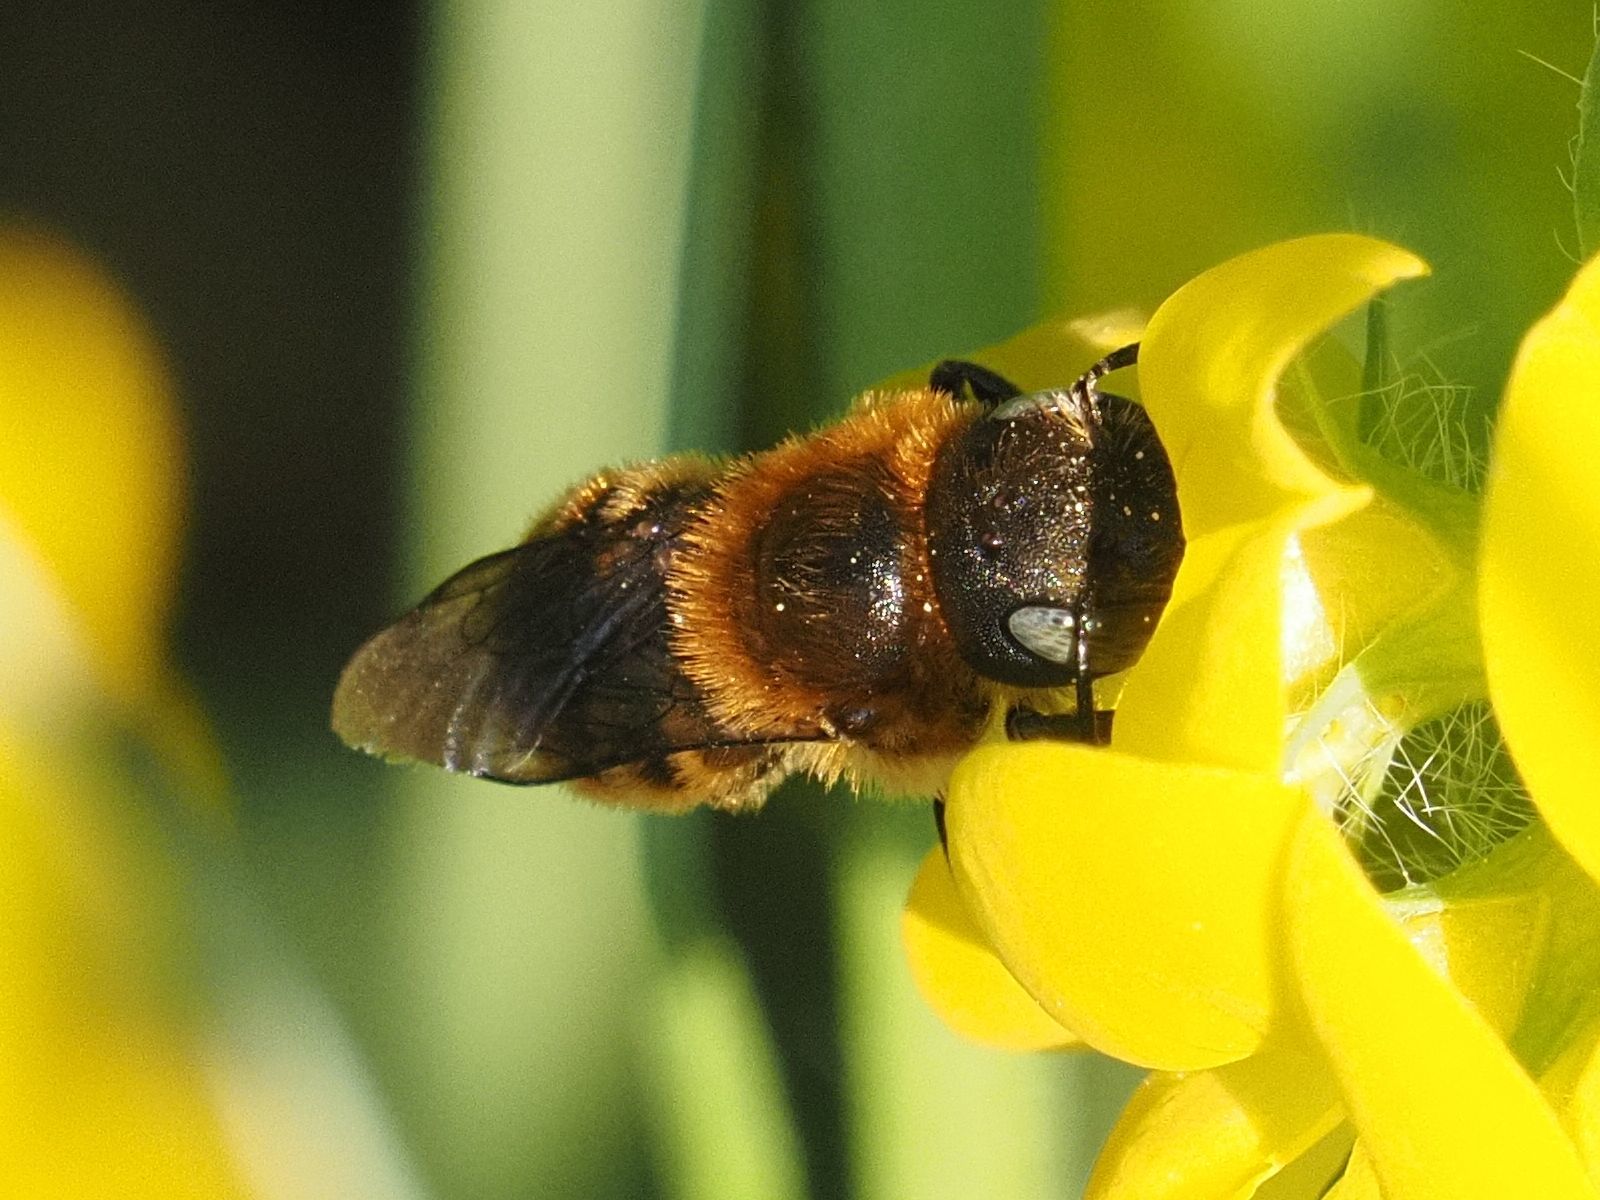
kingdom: Animalia
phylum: Arthropoda
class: Insecta
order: Hymenoptera
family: Megachilidae
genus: Osmia
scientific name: Osmia aurulenta
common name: Gold-fringed mason bee
